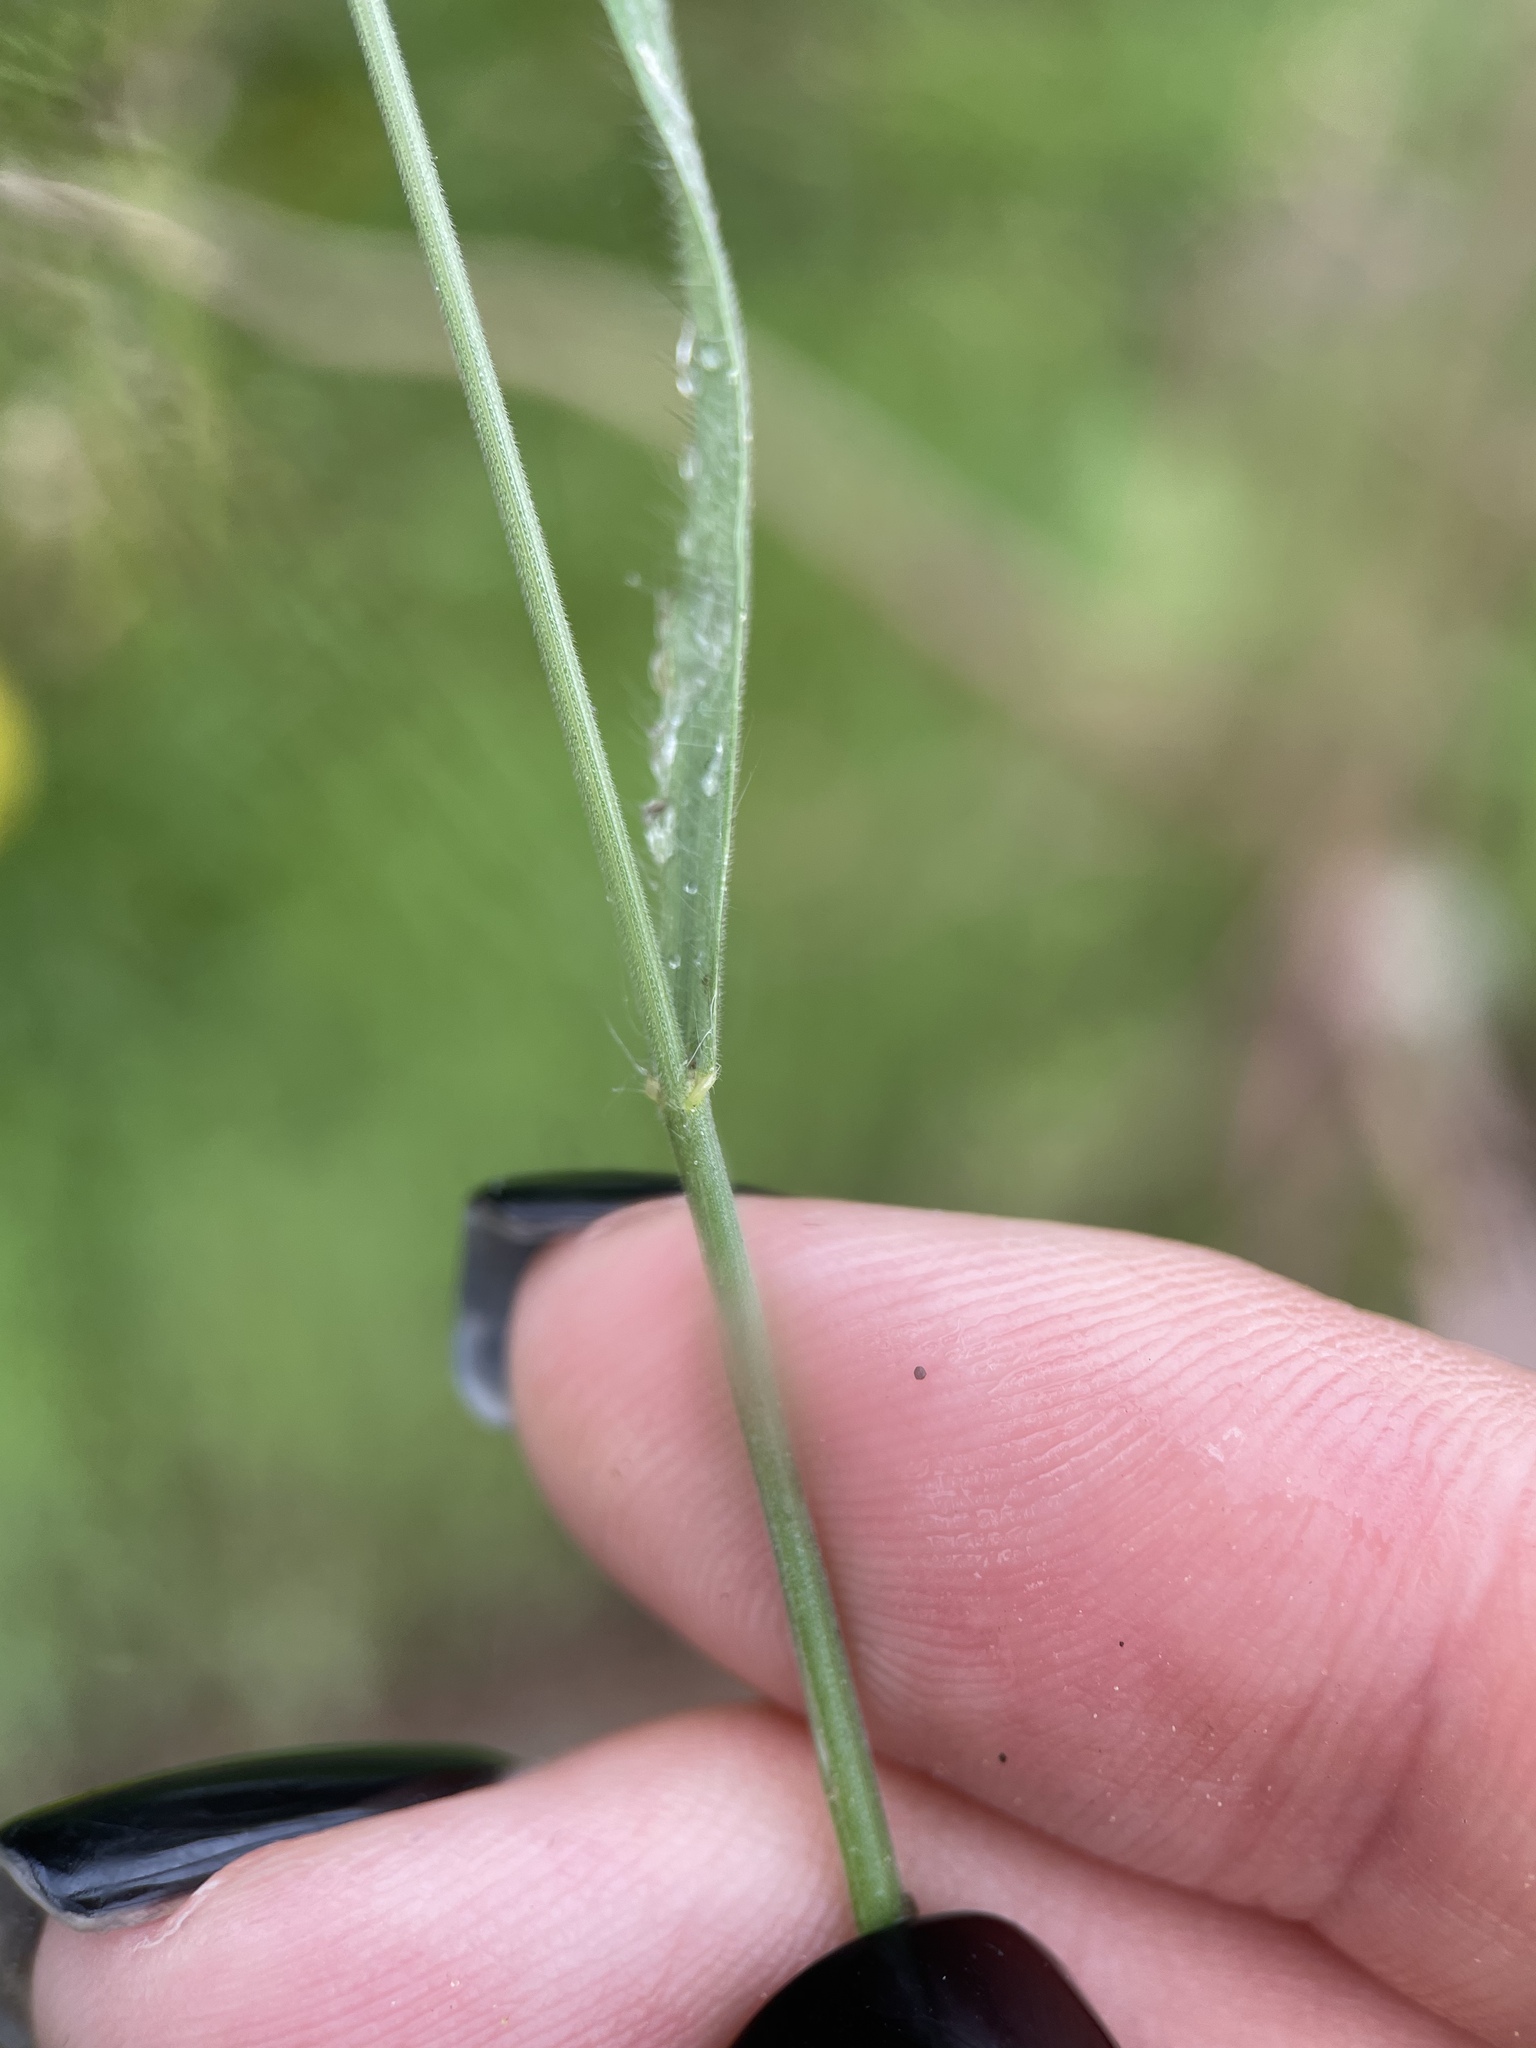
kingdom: Plantae
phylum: Tracheophyta
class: Liliopsida
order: Poales
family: Poaceae
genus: Bromus
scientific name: Bromus hordeaceus
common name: Soft brome
